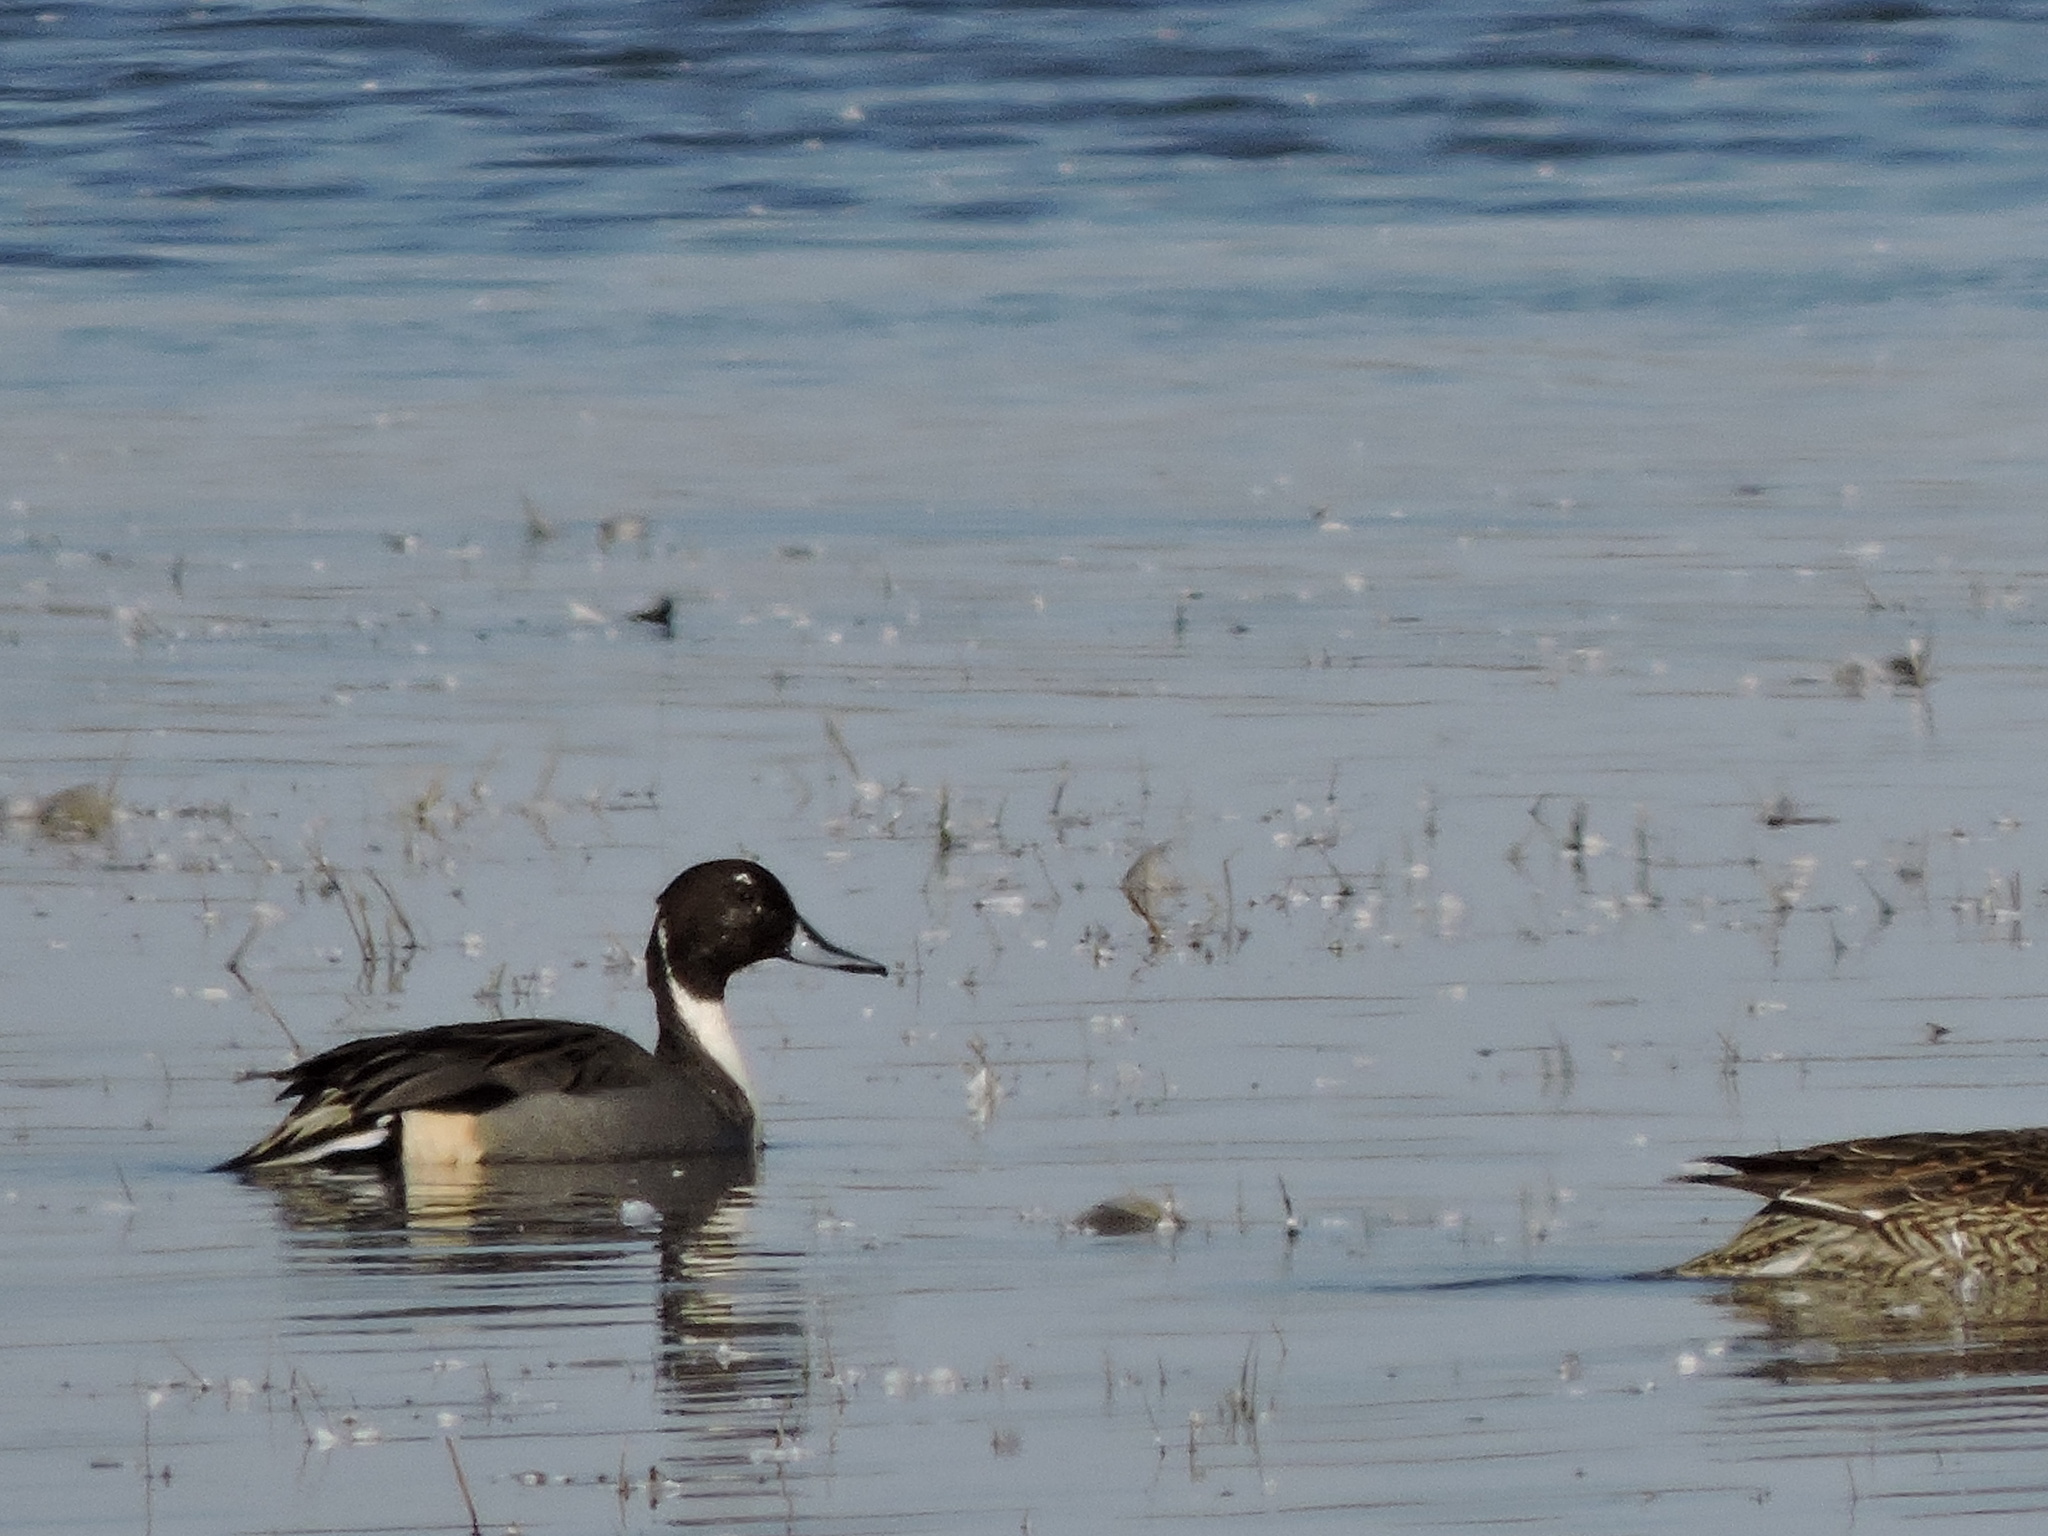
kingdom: Animalia
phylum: Chordata
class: Aves
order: Anseriformes
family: Anatidae
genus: Anas
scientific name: Anas acuta
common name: Northern pintail
